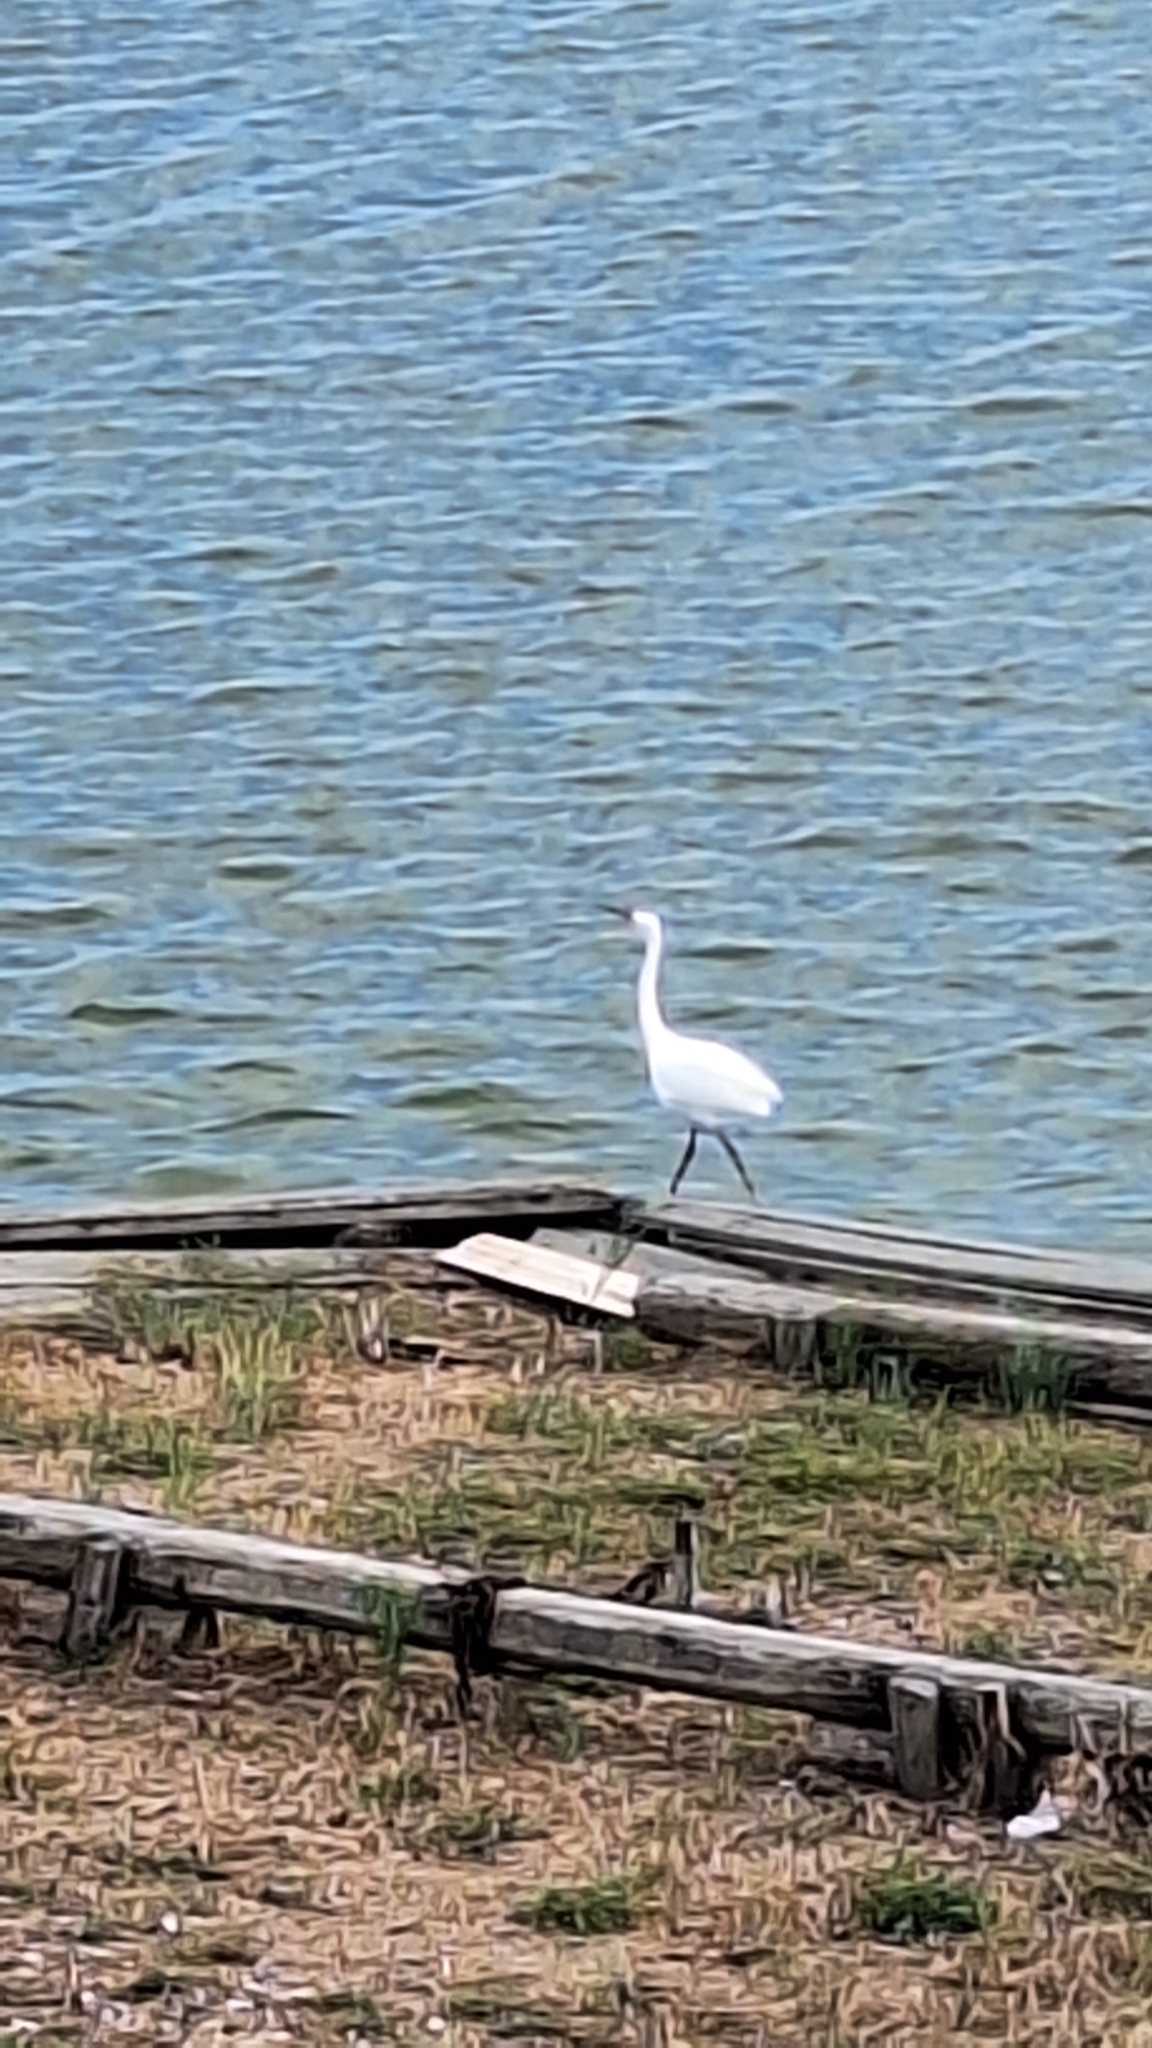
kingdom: Animalia
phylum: Chordata
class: Aves
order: Pelecaniformes
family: Ardeidae
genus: Egretta
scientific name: Egretta garzetta
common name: Little egret
